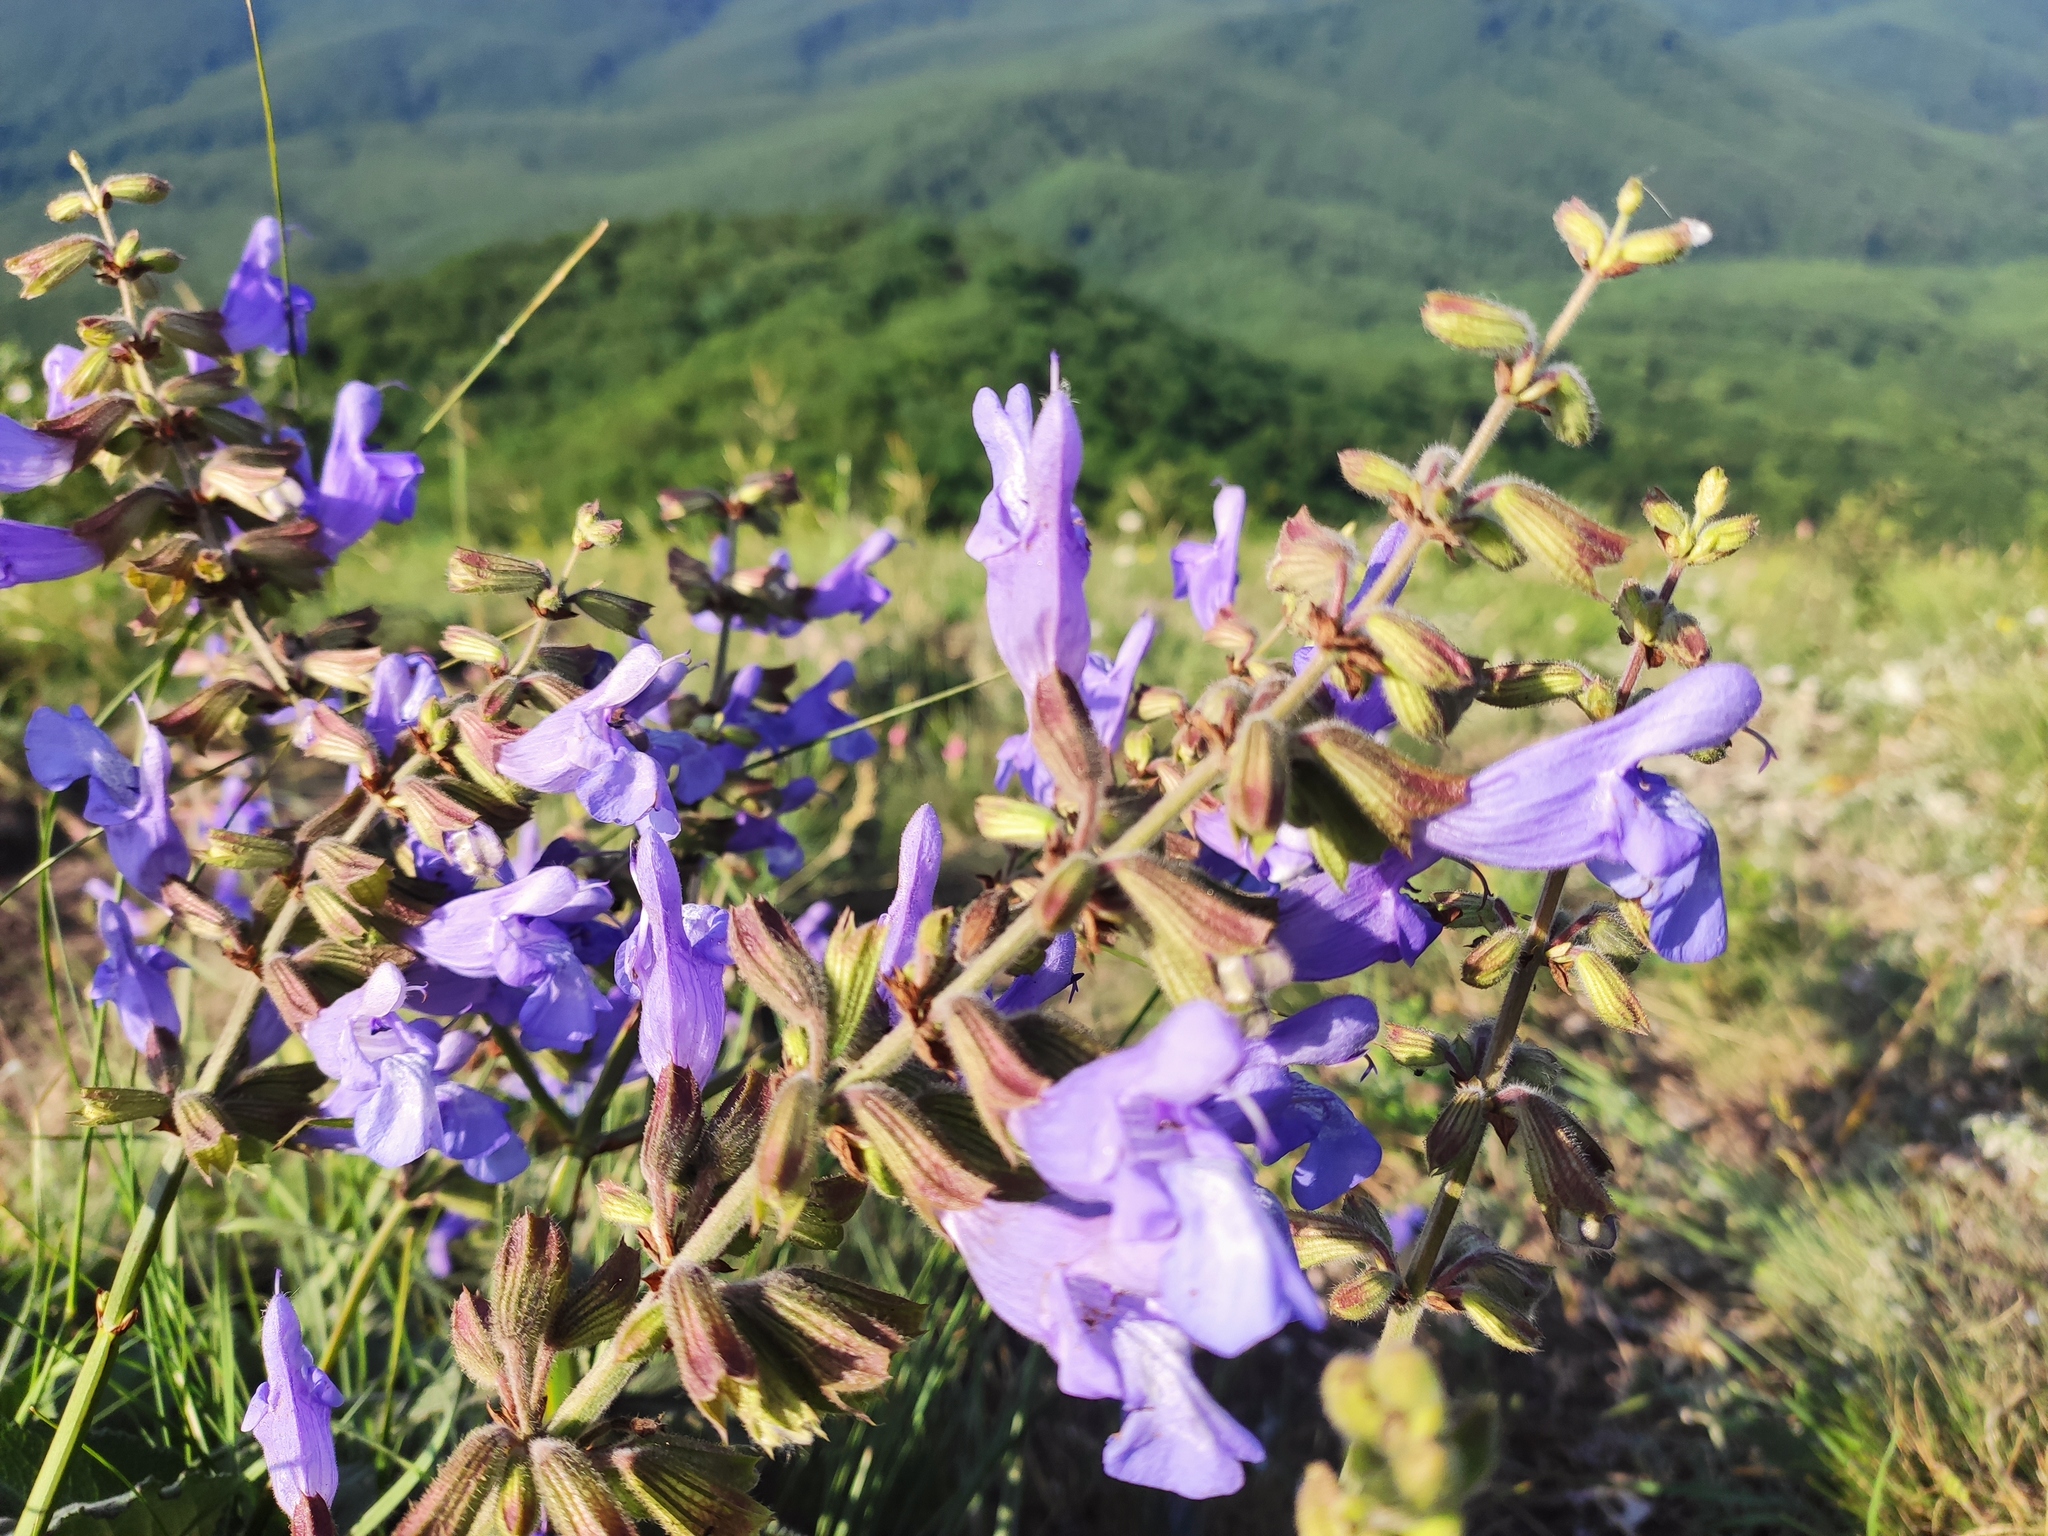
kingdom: Plantae
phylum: Tracheophyta
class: Magnoliopsida
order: Lamiales
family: Lamiaceae
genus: Salvia
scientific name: Salvia ringens
